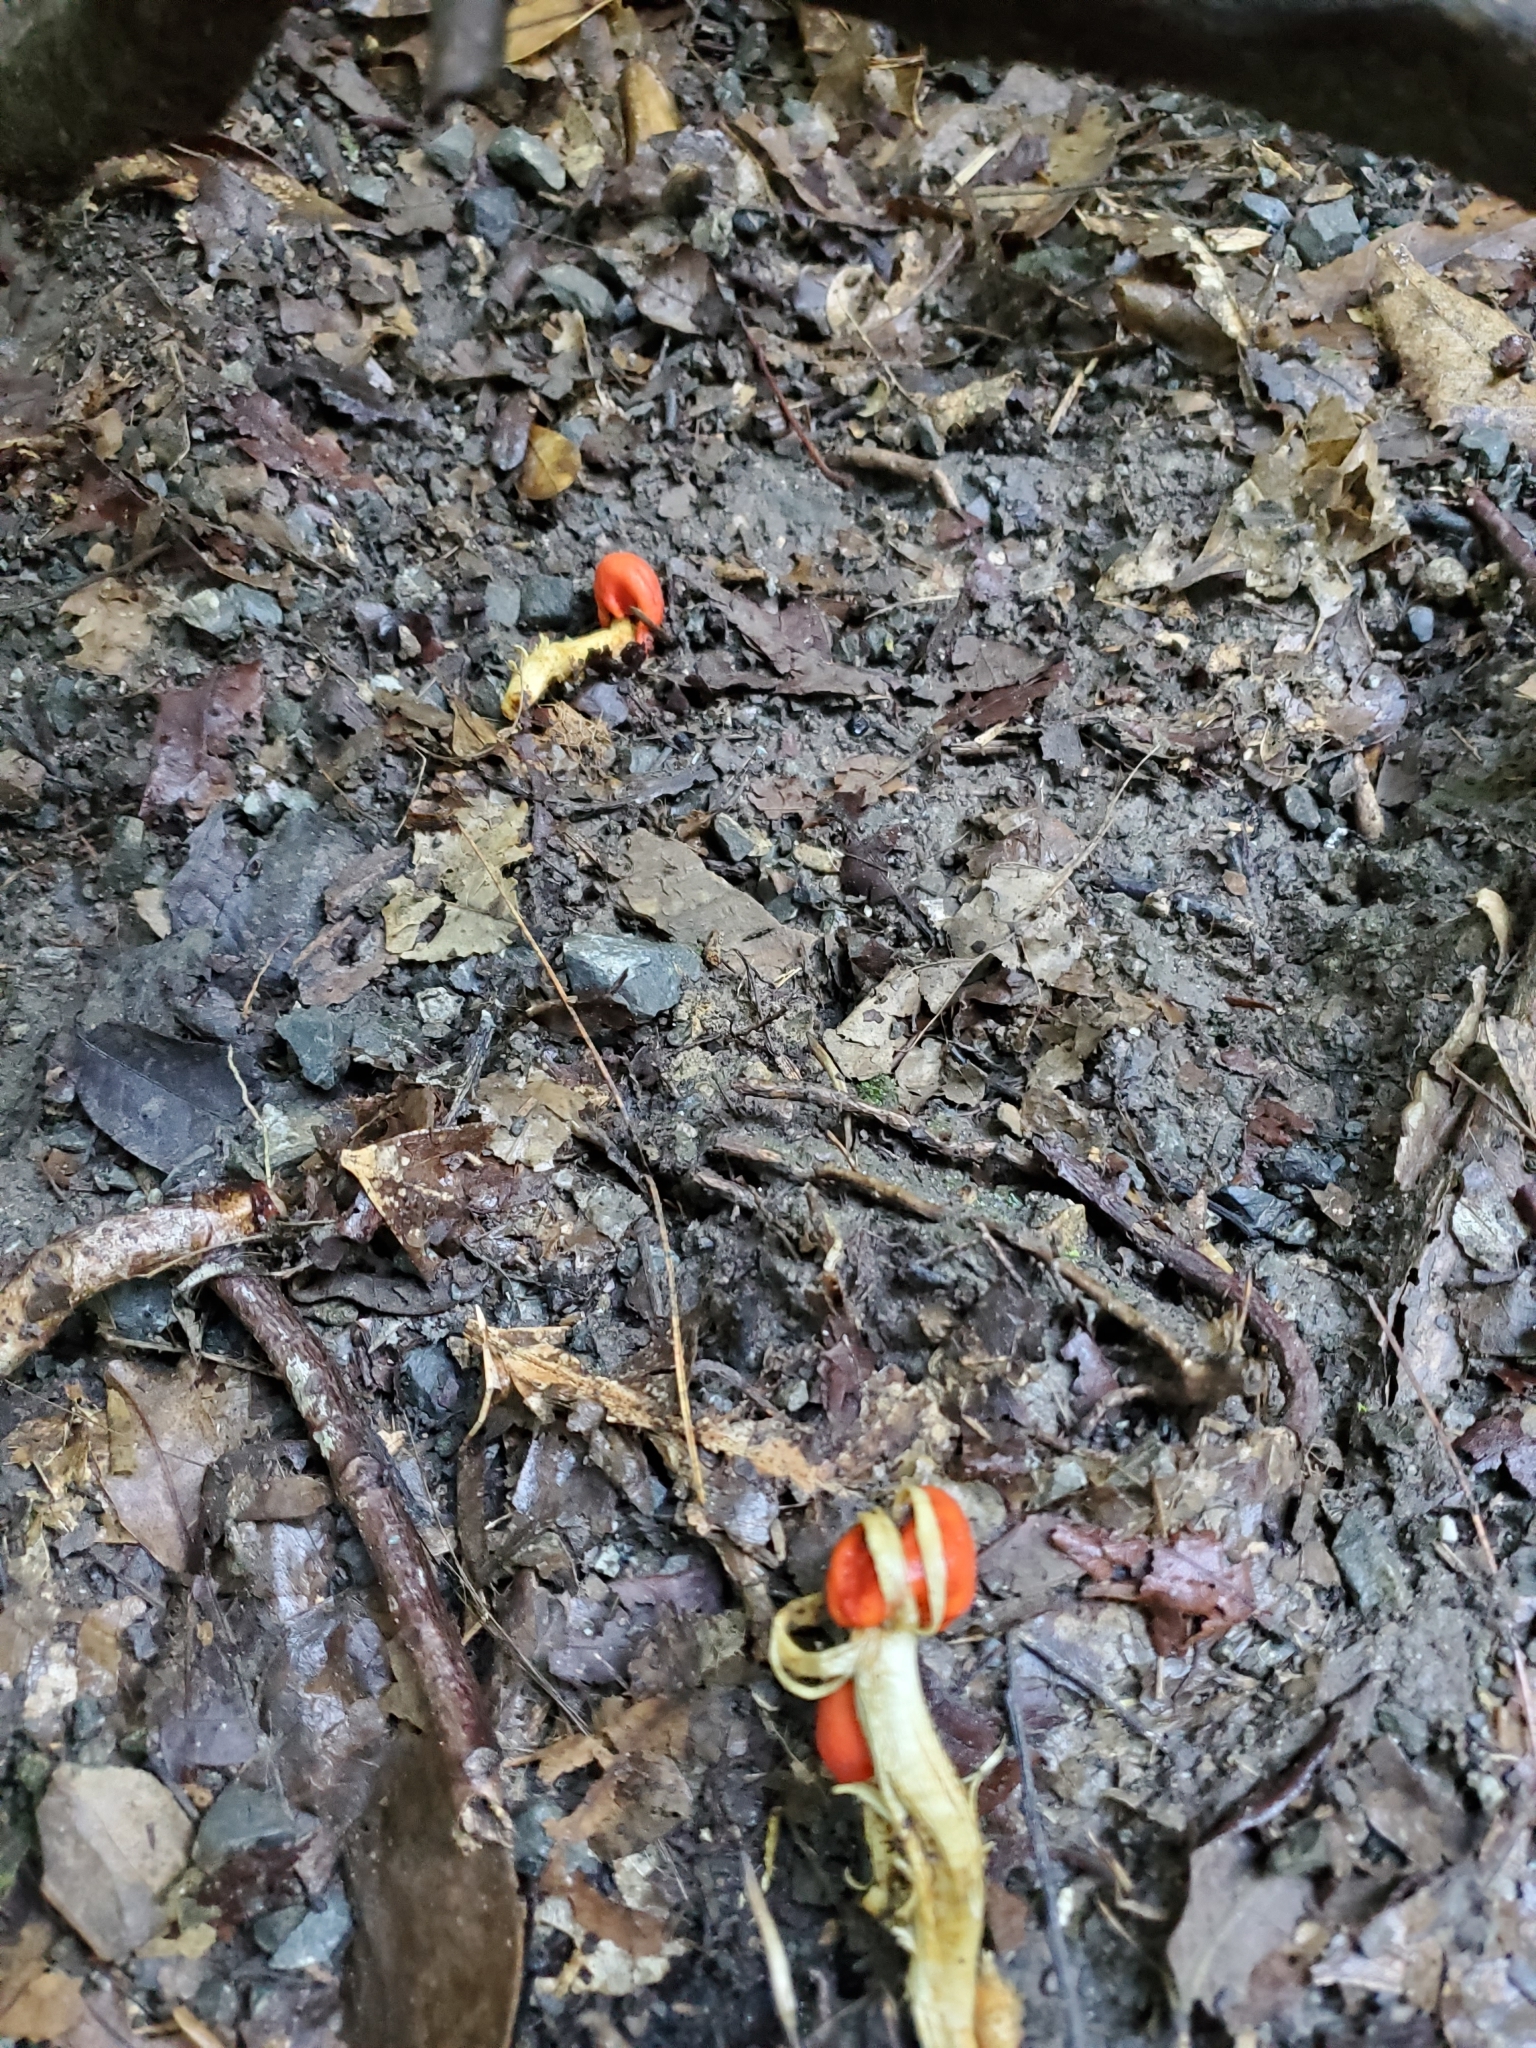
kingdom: Fungi
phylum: Basidiomycota
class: Agaricomycetes
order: Agaricales
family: Strophariaceae
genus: Leratiomyces
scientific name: Leratiomyces erythrocephalus
